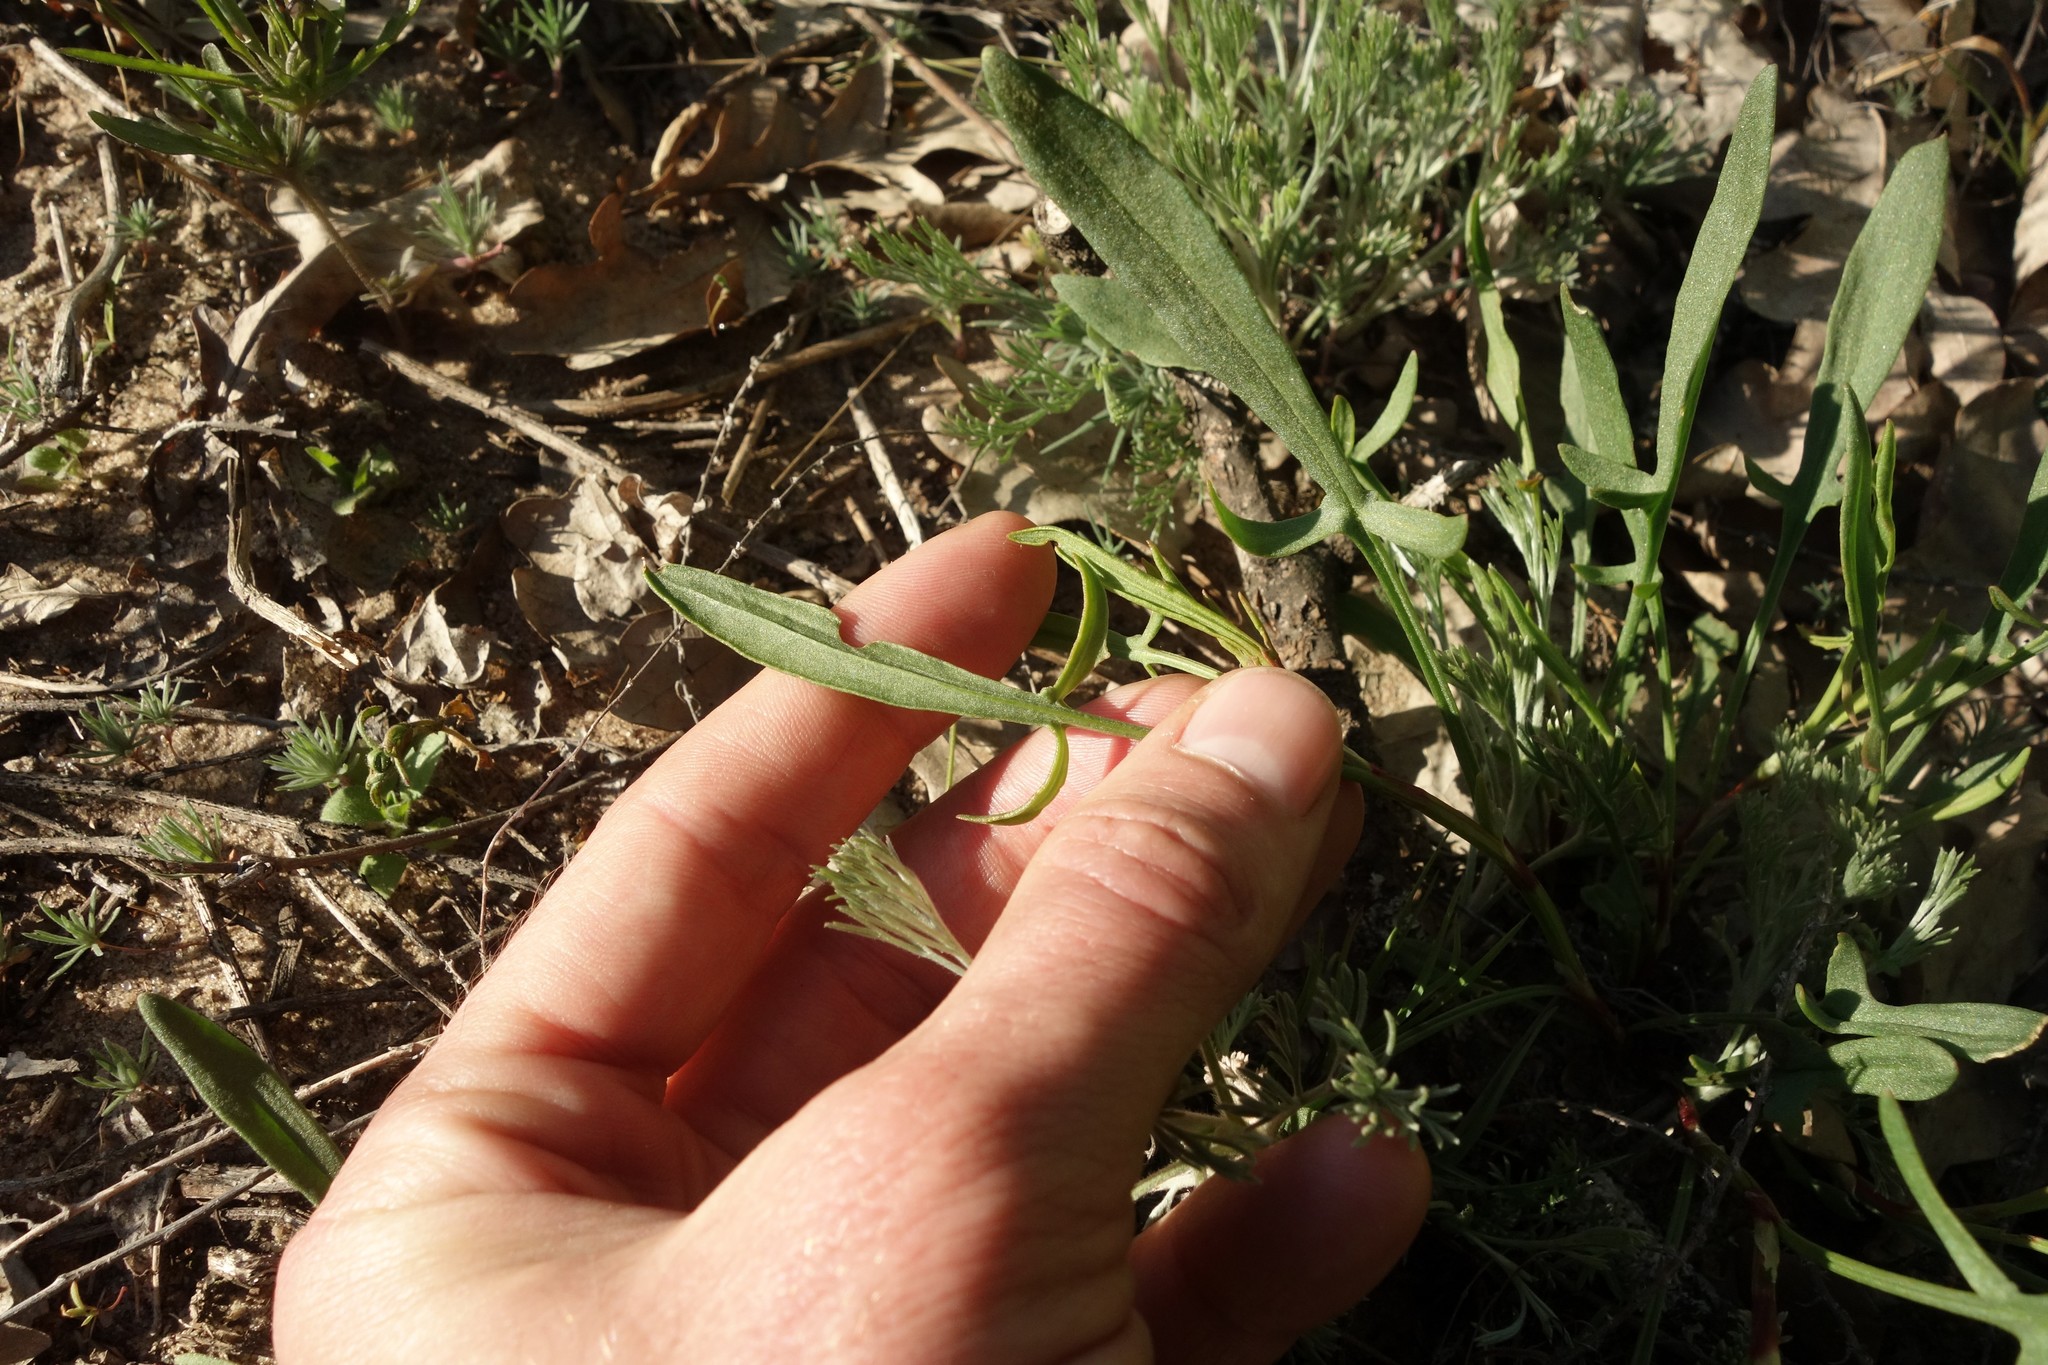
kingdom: Plantae
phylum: Tracheophyta
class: Magnoliopsida
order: Caryophyllales
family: Polygonaceae
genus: Rumex
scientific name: Rumex acetosella
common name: Common sheep sorrel
